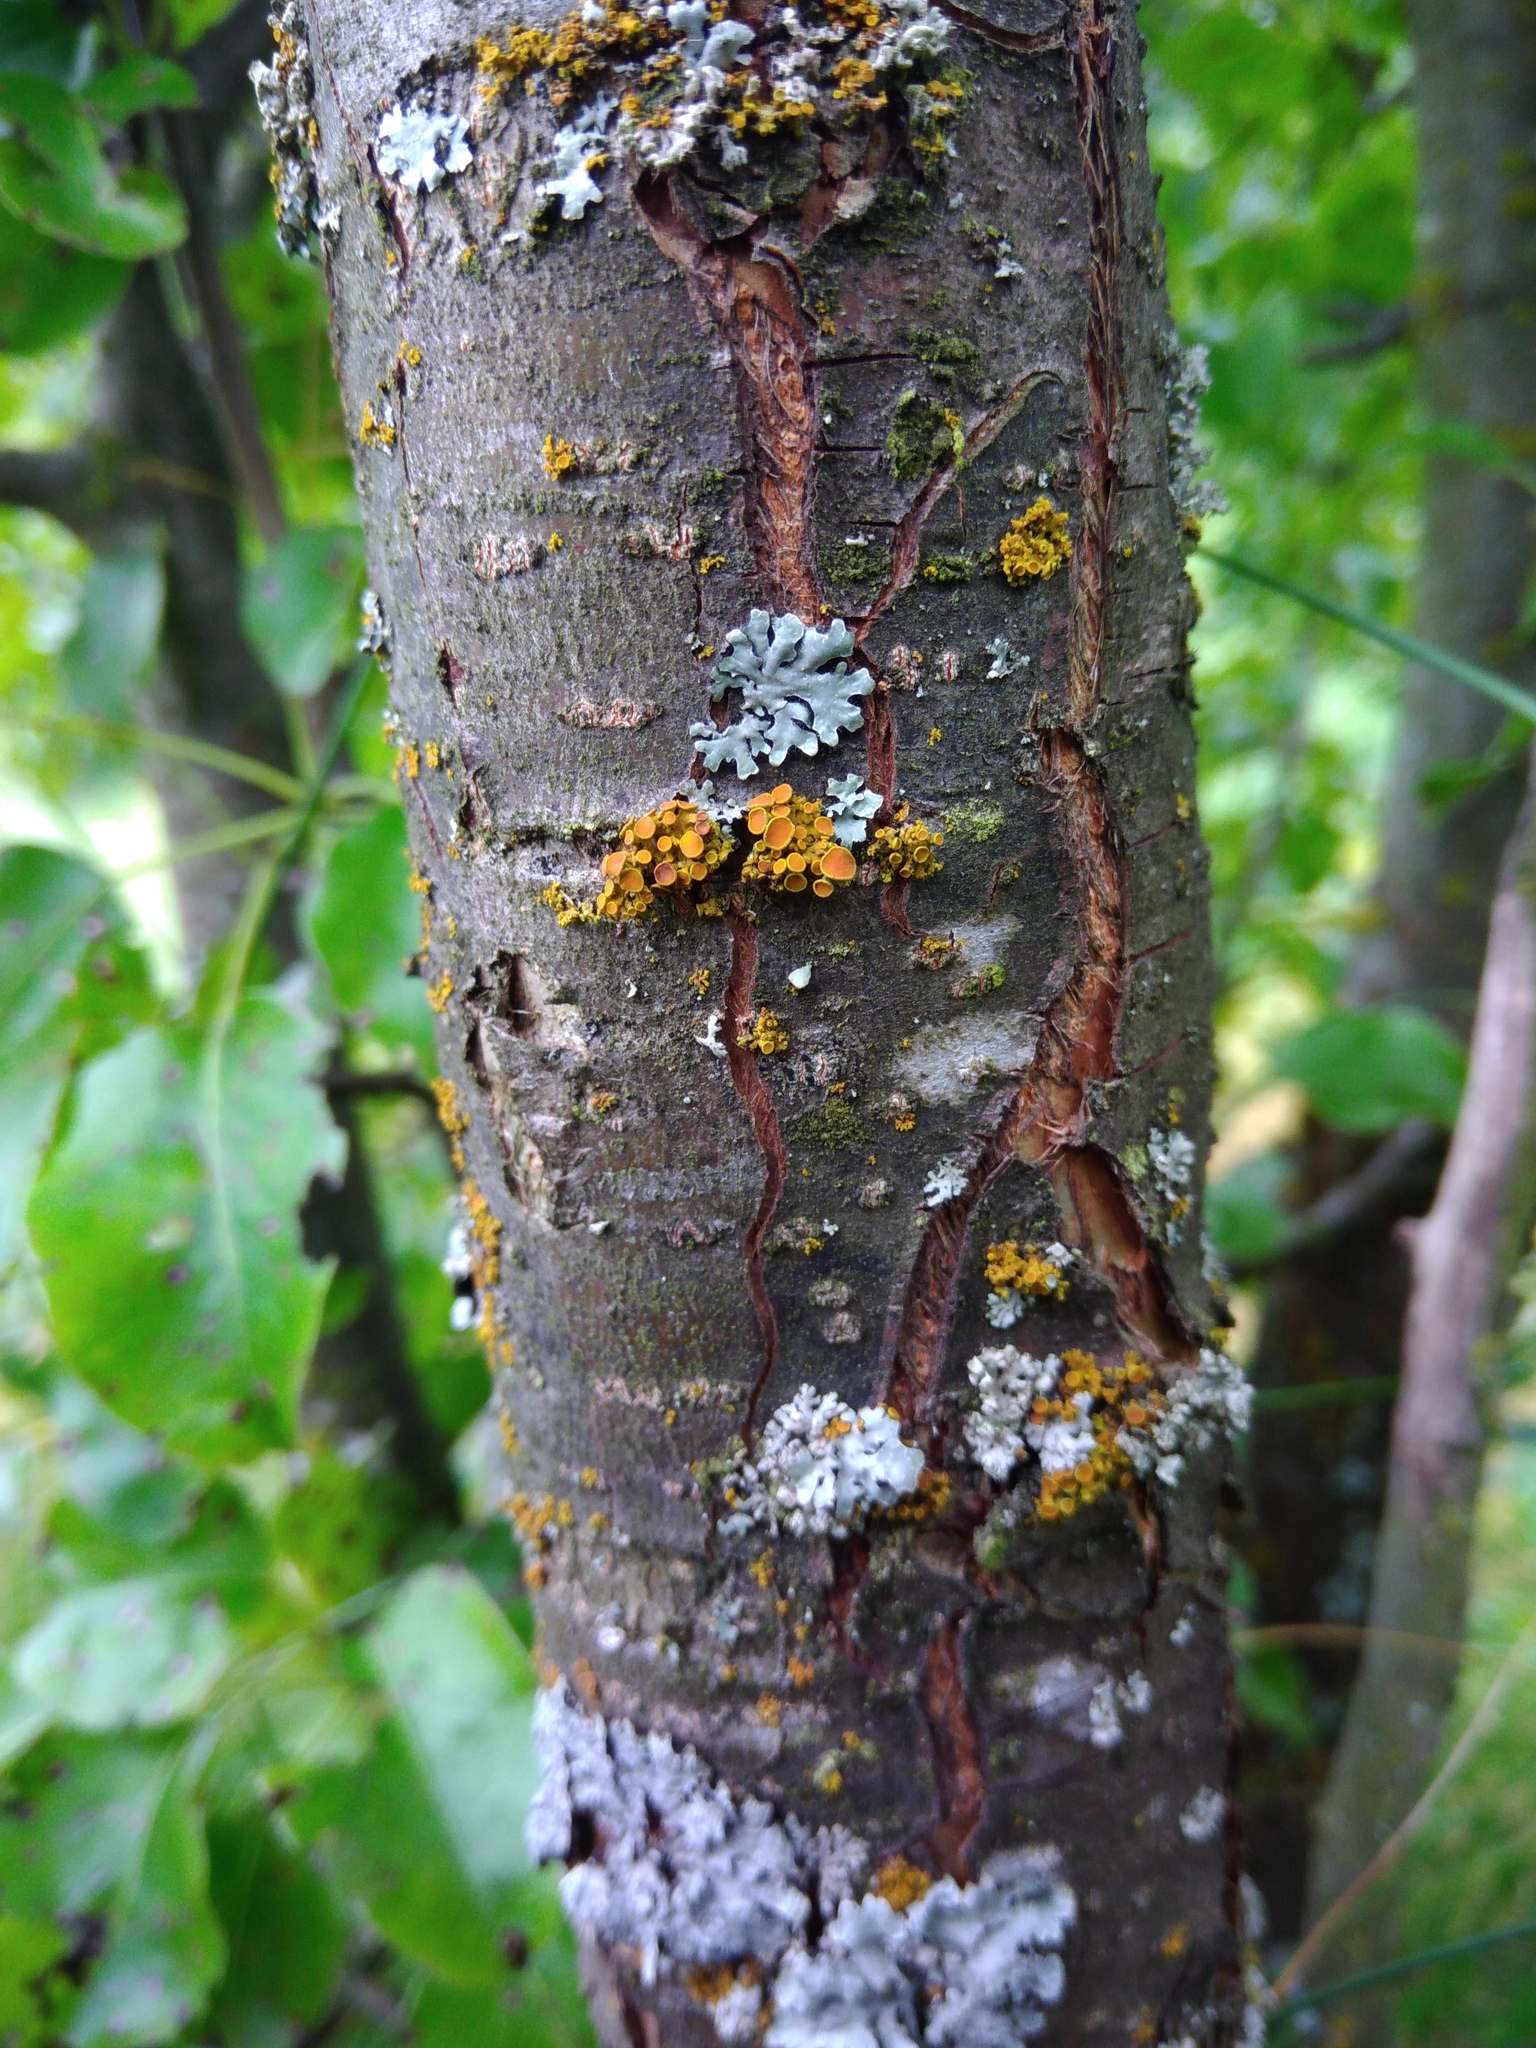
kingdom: Fungi
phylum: Ascomycota
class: Lecanoromycetes
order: Teloschistales
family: Teloschistaceae
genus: Polycauliona
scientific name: Polycauliona polycarpa
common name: Pin-cushion sunburst lichen
